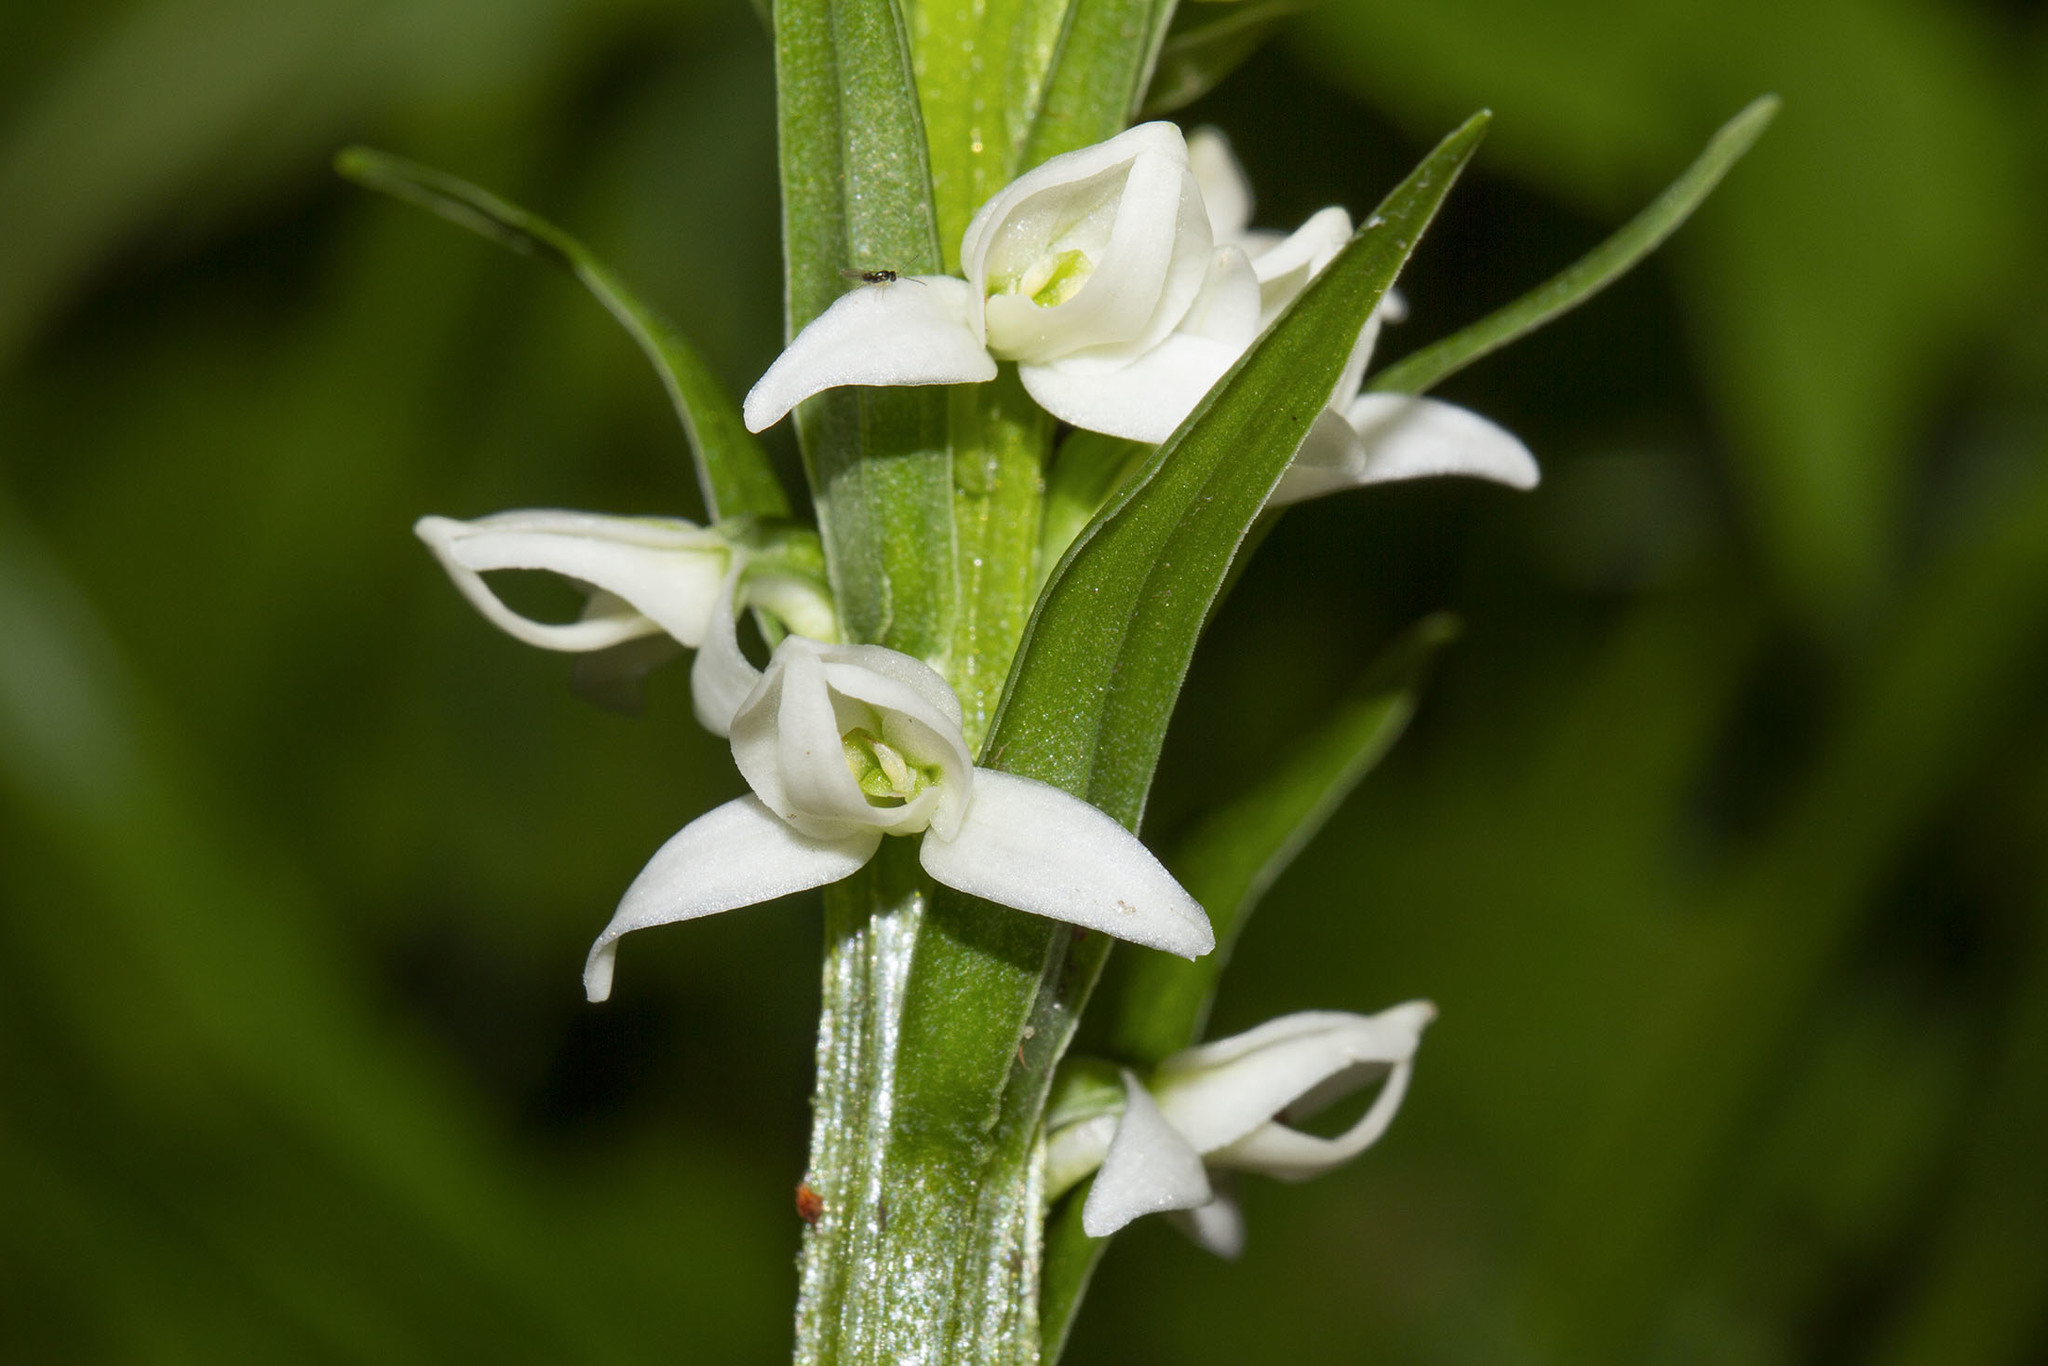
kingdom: Plantae
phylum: Tracheophyta
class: Liliopsida
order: Asparagales
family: Orchidaceae
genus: Platanthera
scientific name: Platanthera dilatata
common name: Bog candles
